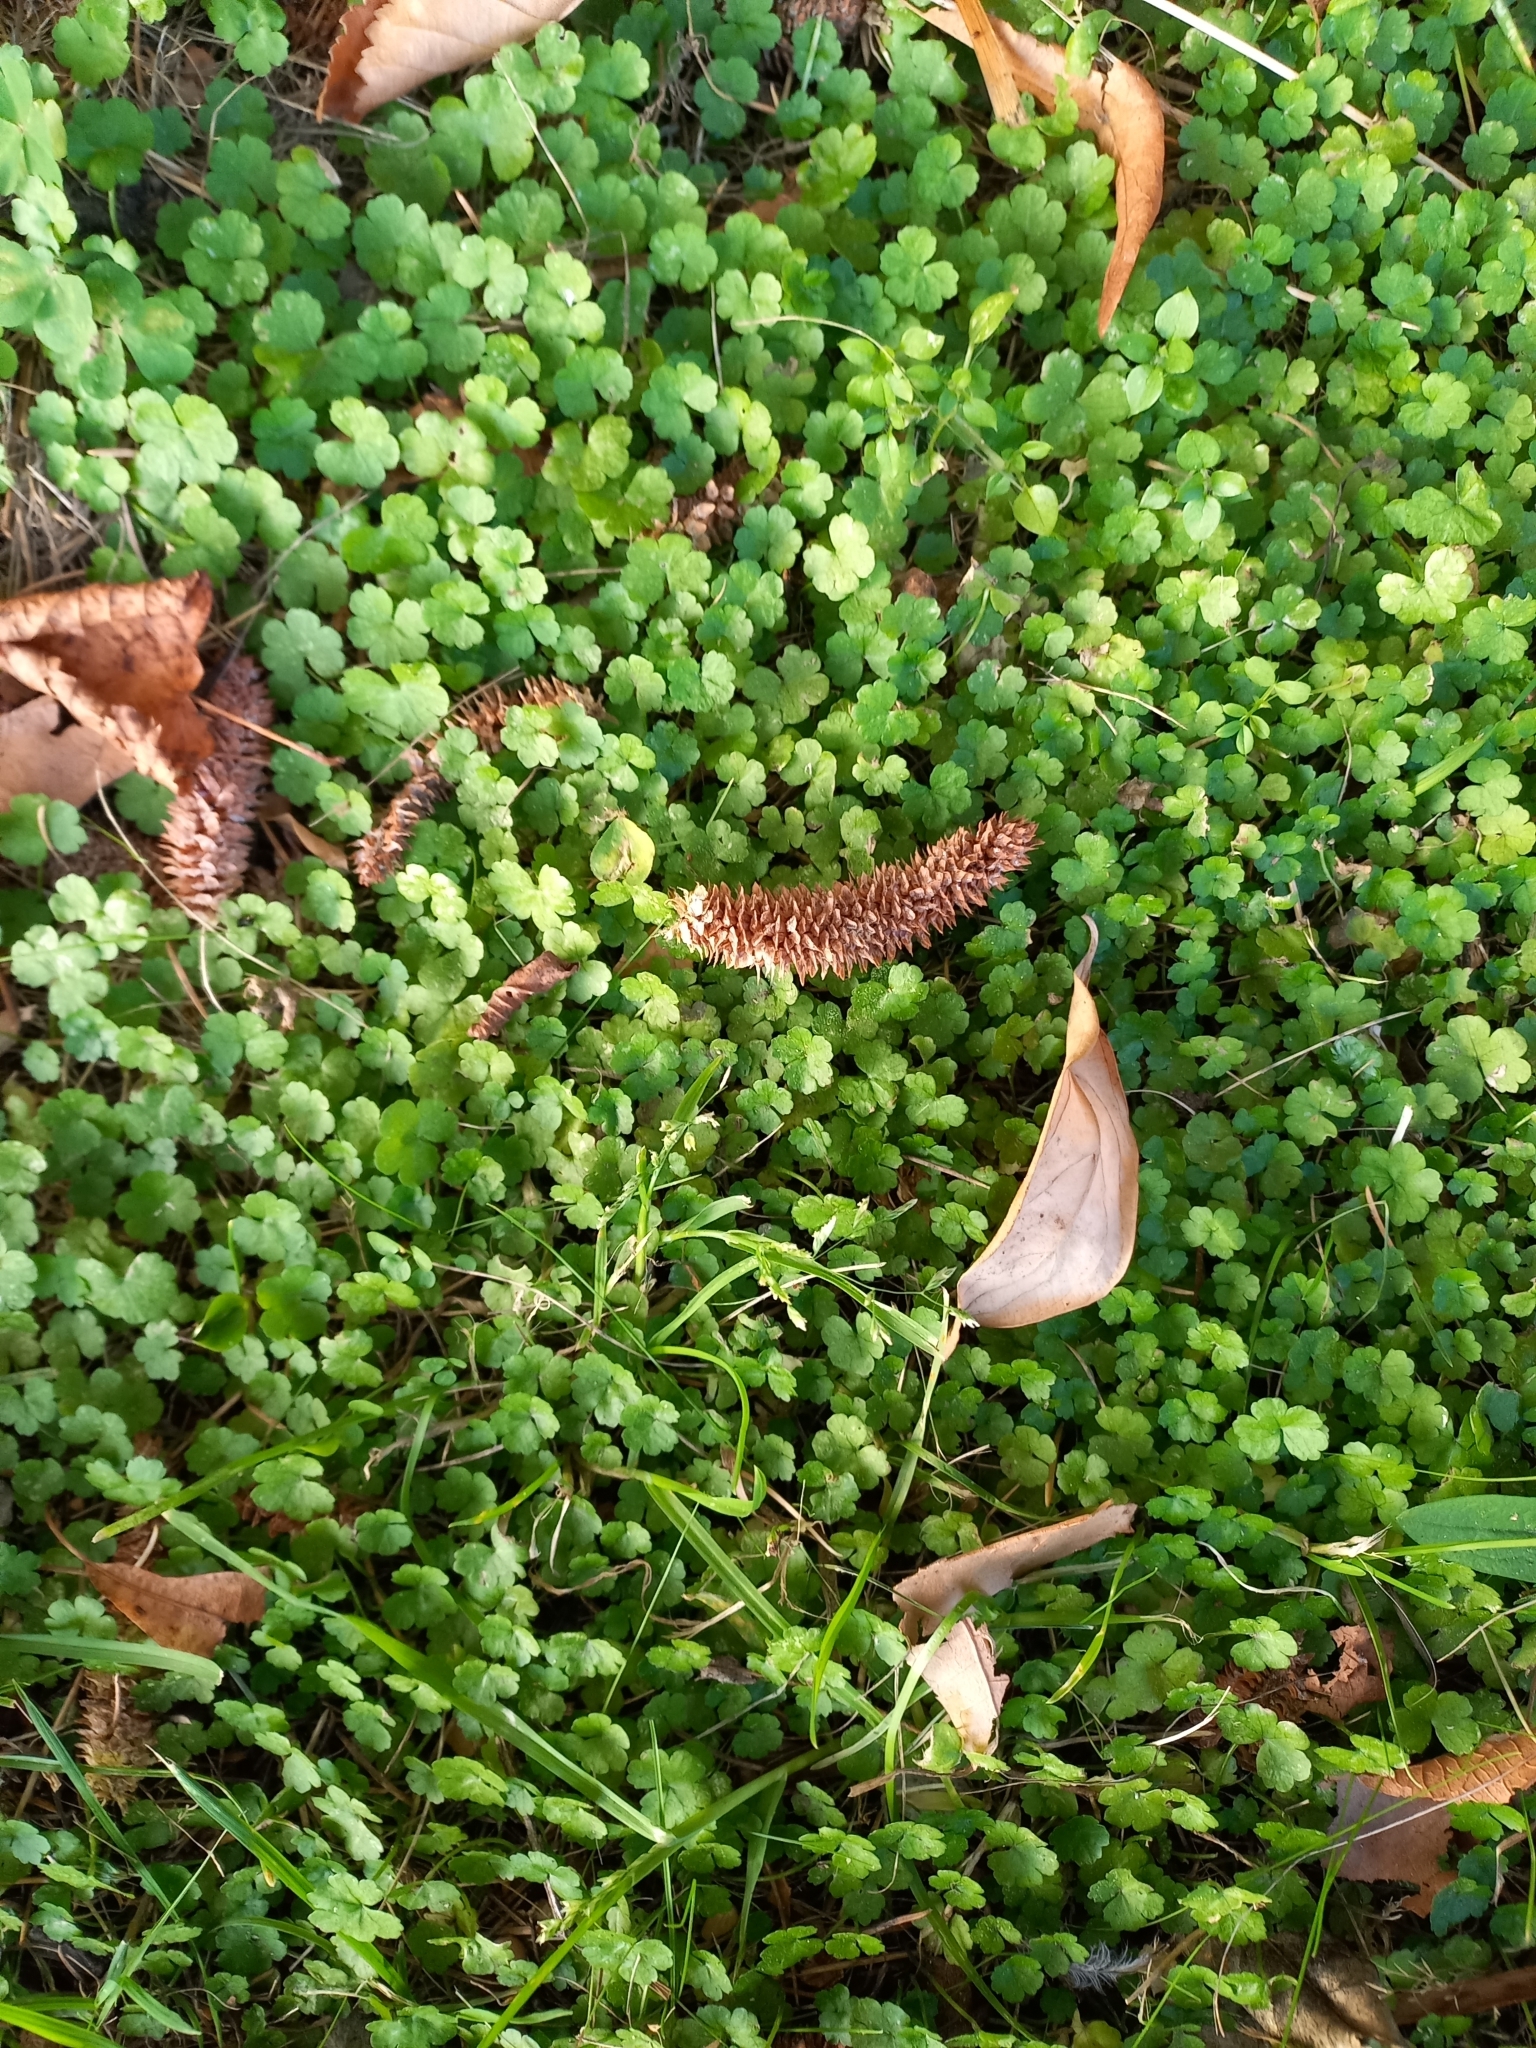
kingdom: Plantae
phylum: Tracheophyta
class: Magnoliopsida
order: Apiales
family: Araliaceae
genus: Hydrocotyle
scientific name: Hydrocotyle heteromeria
